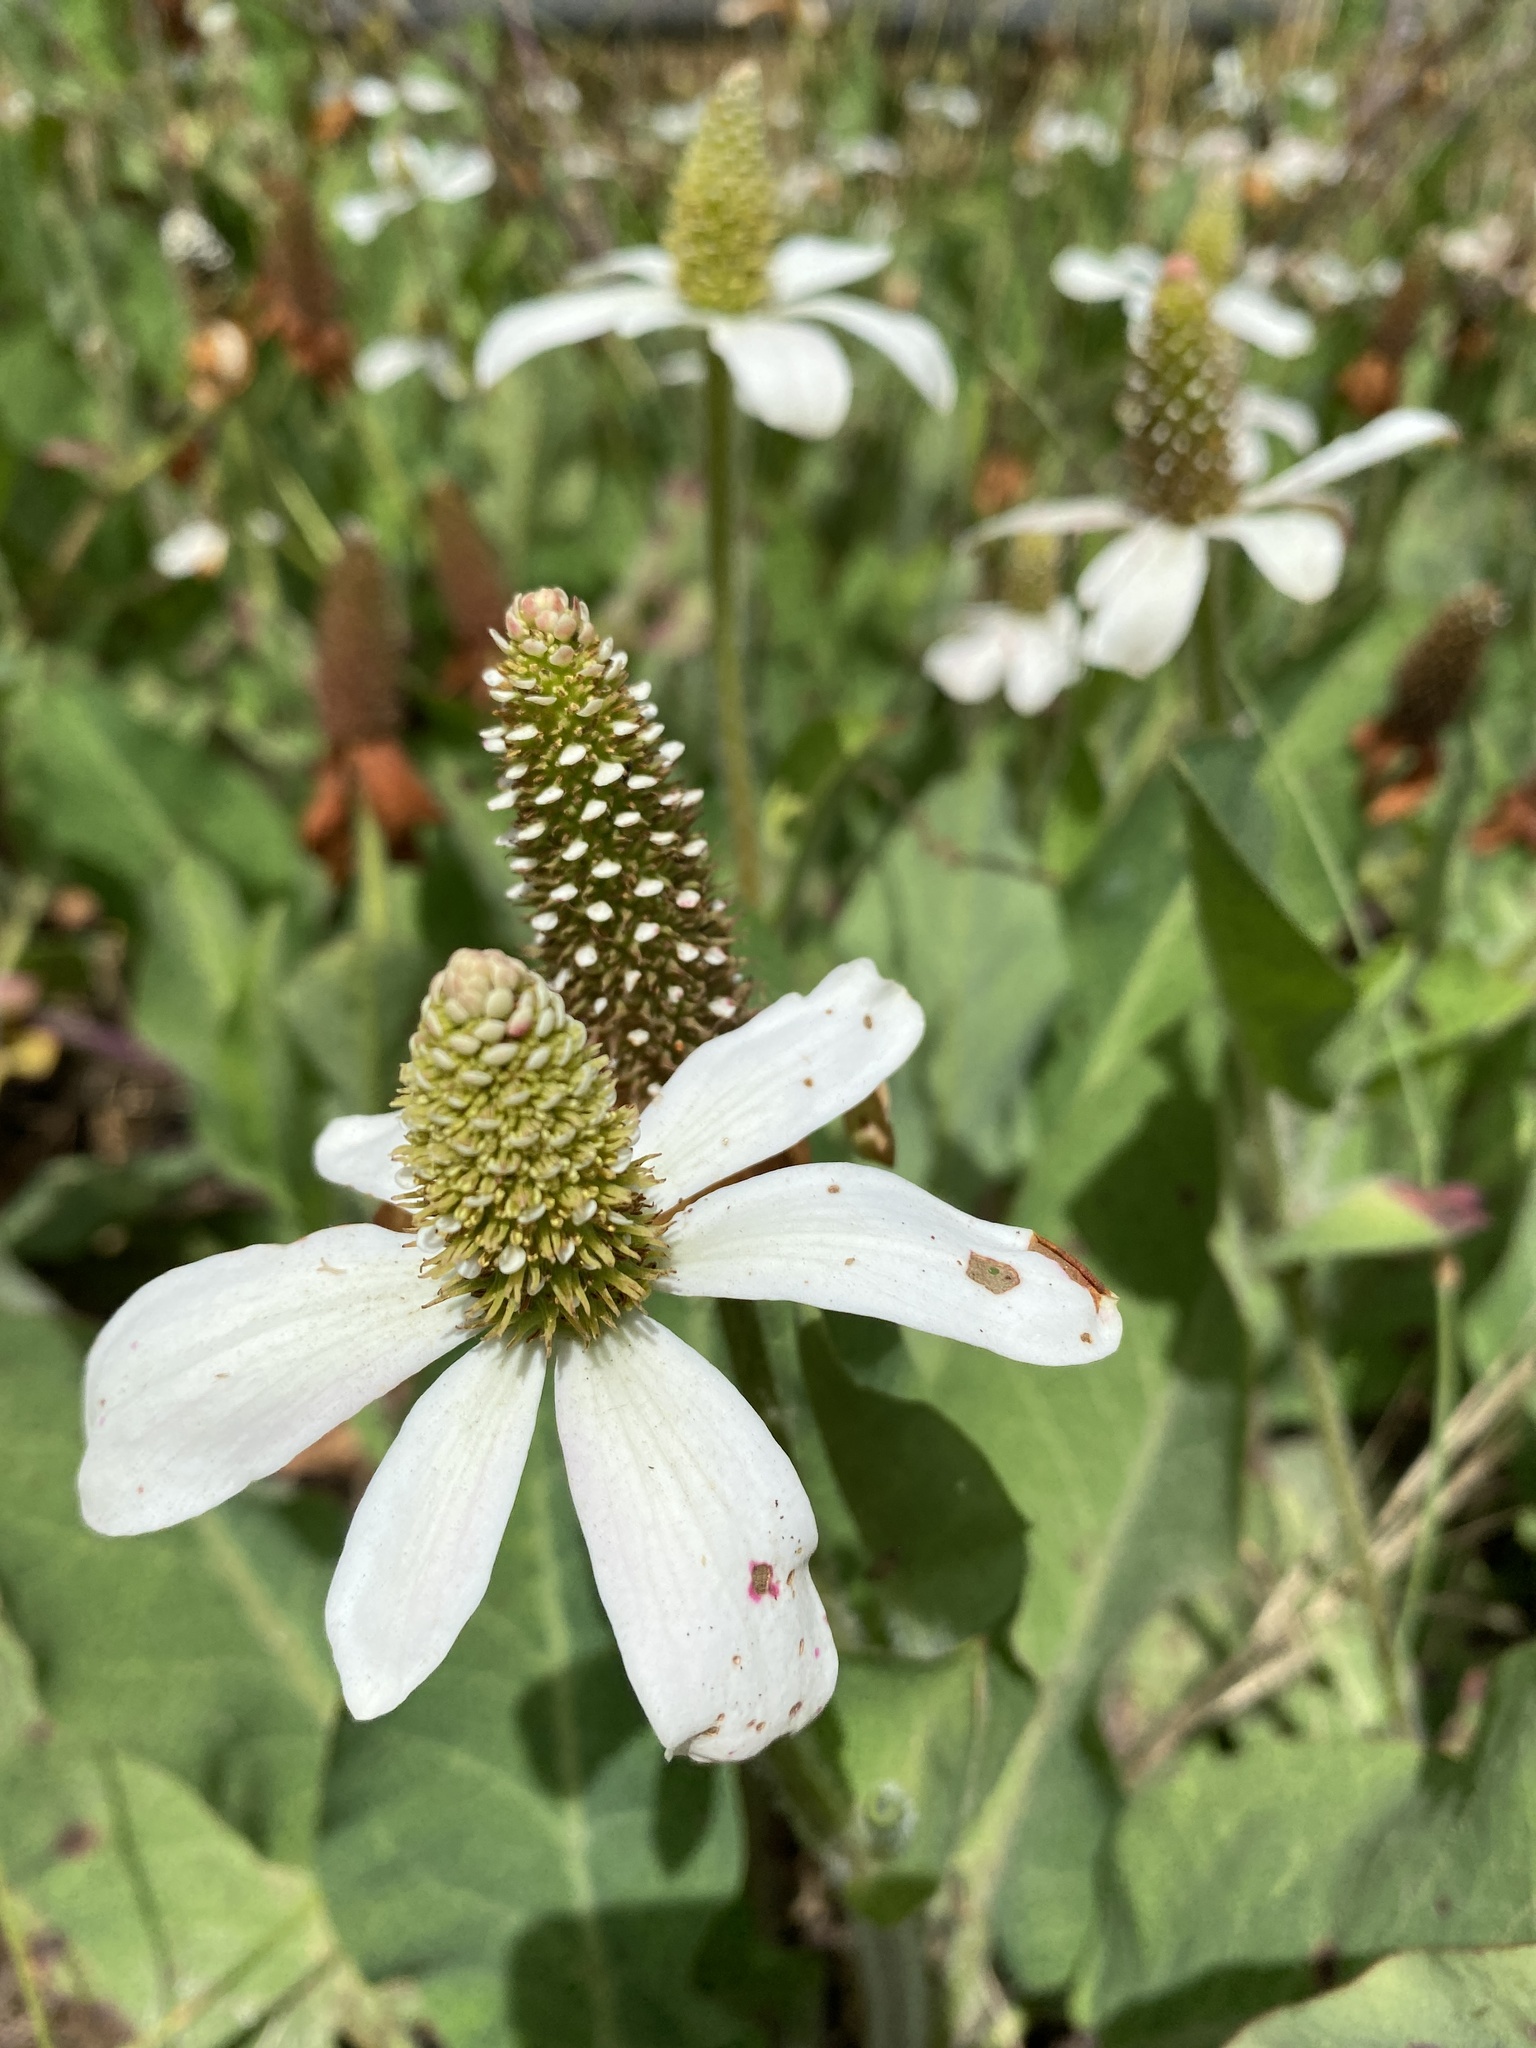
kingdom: Plantae
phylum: Tracheophyta
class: Magnoliopsida
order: Piperales
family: Saururaceae
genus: Anemopsis
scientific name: Anemopsis californica
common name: Apache-beads
